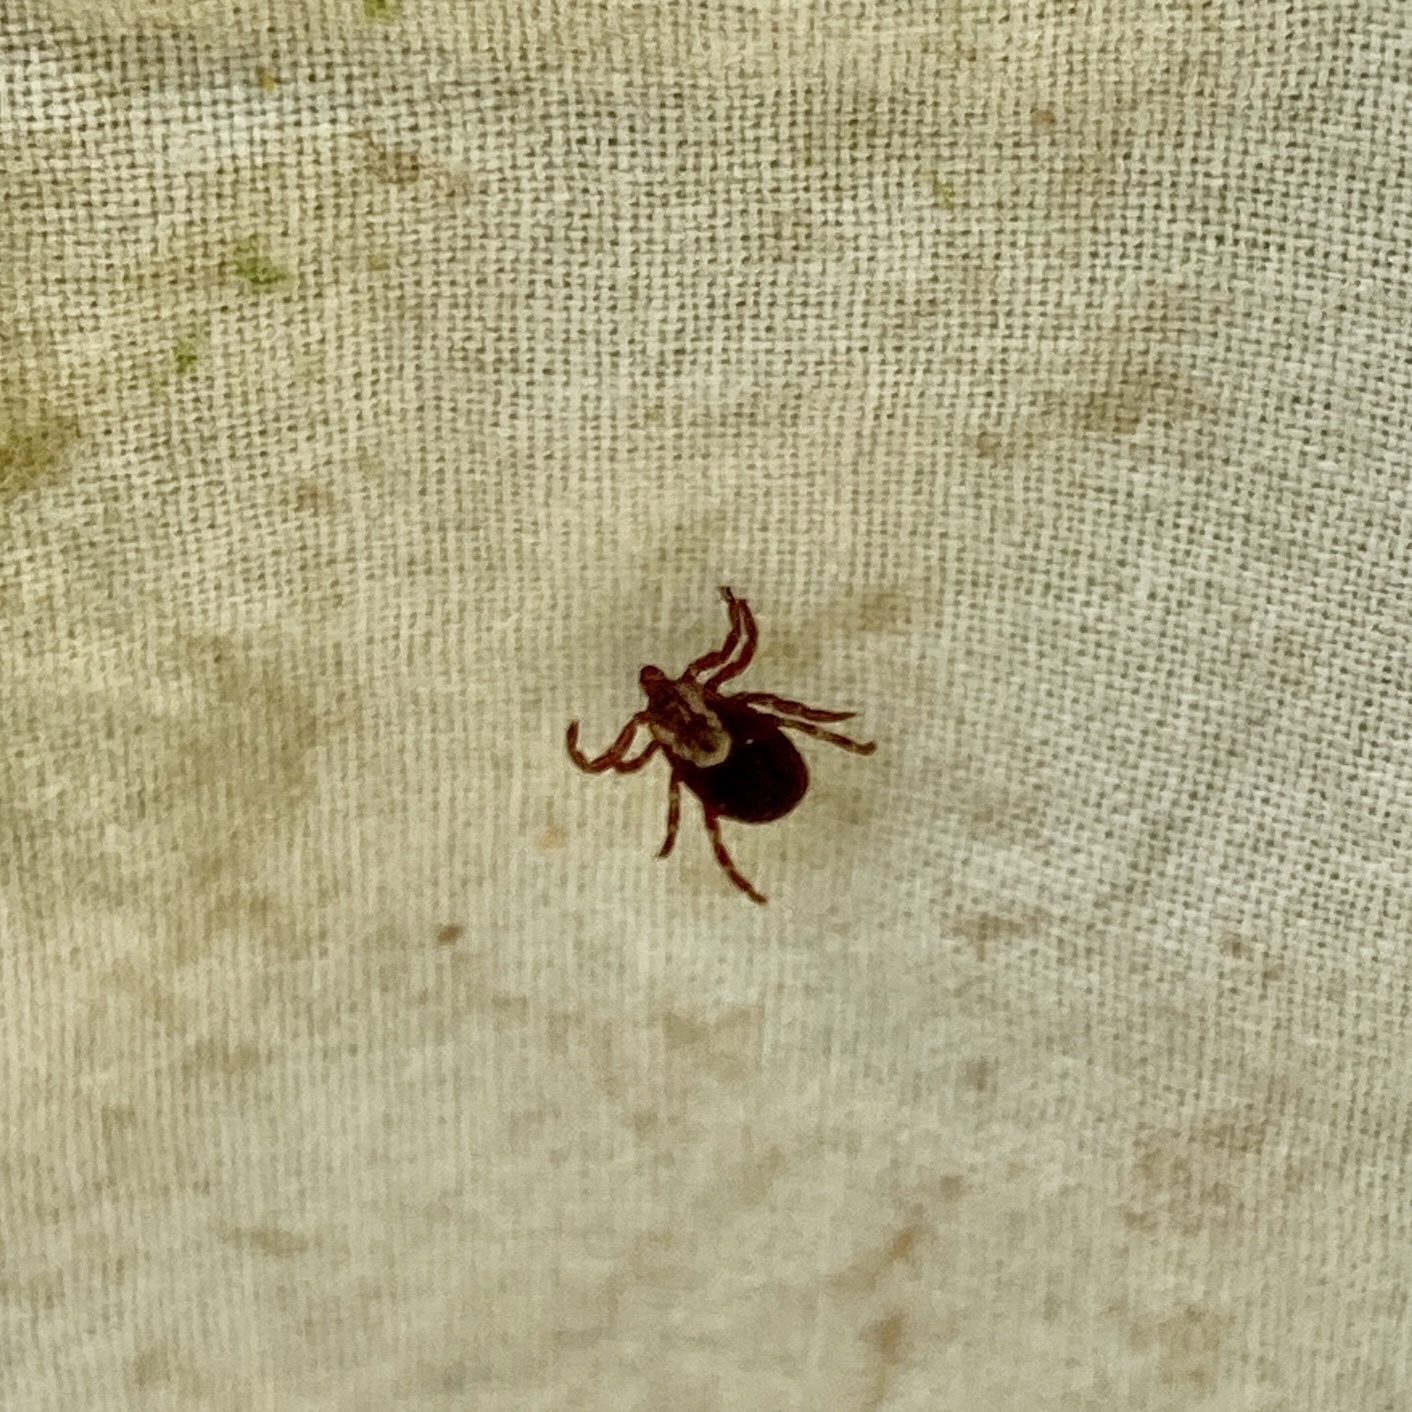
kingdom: Animalia
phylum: Arthropoda
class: Arachnida
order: Ixodida
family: Ixodidae
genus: Dermacentor
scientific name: Dermacentor variabilis
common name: American dog tick
